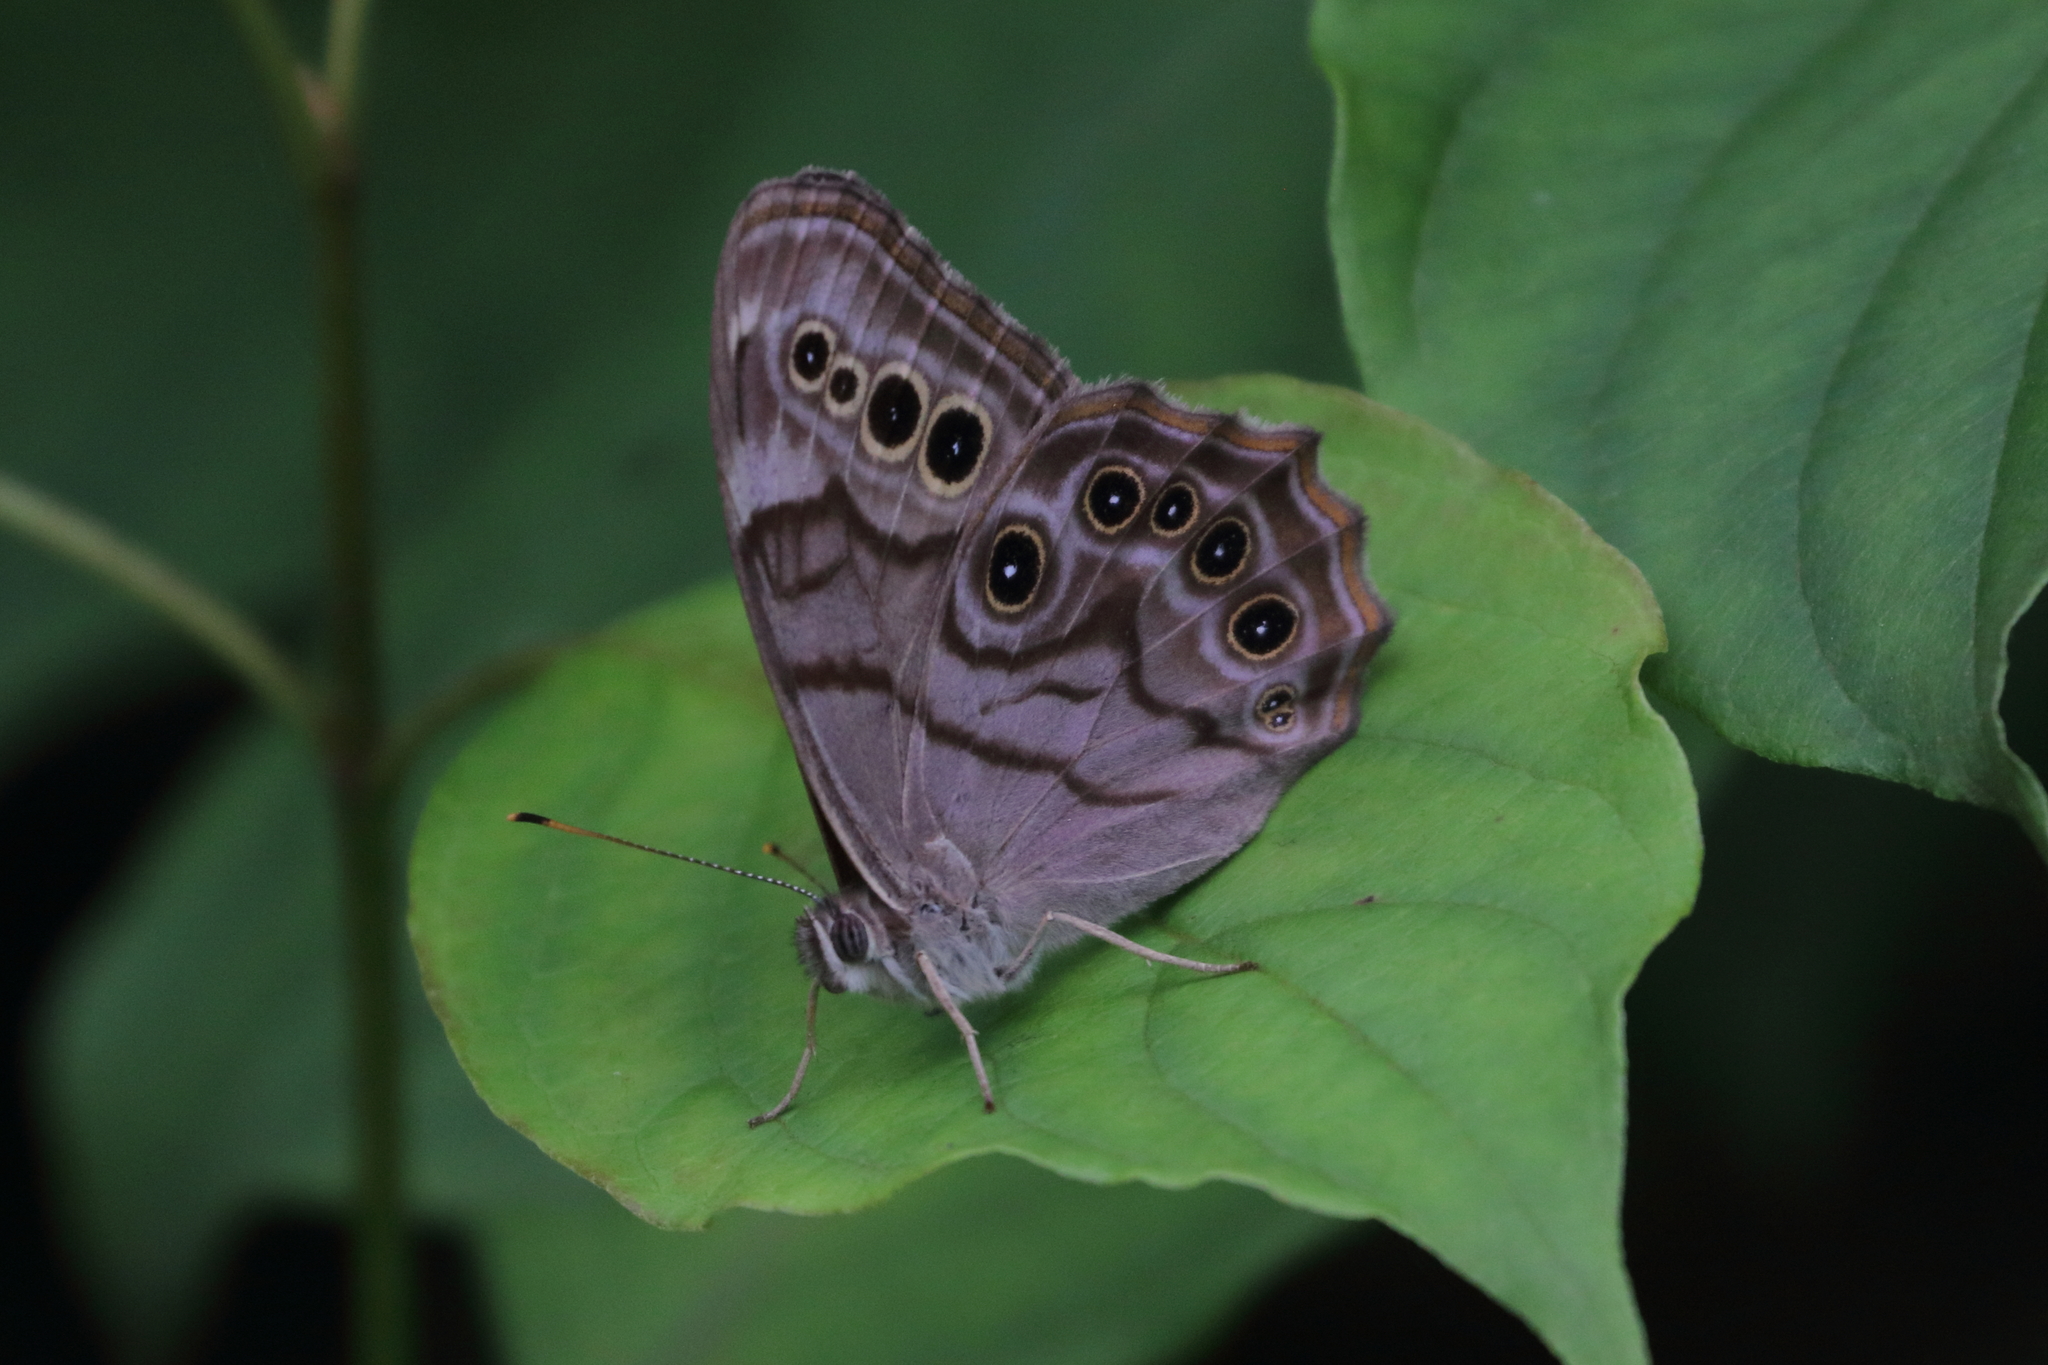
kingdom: Animalia
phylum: Arthropoda
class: Insecta
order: Lepidoptera
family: Nymphalidae
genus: Lethe
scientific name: Lethe anthedon
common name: Northern pearly-eye
